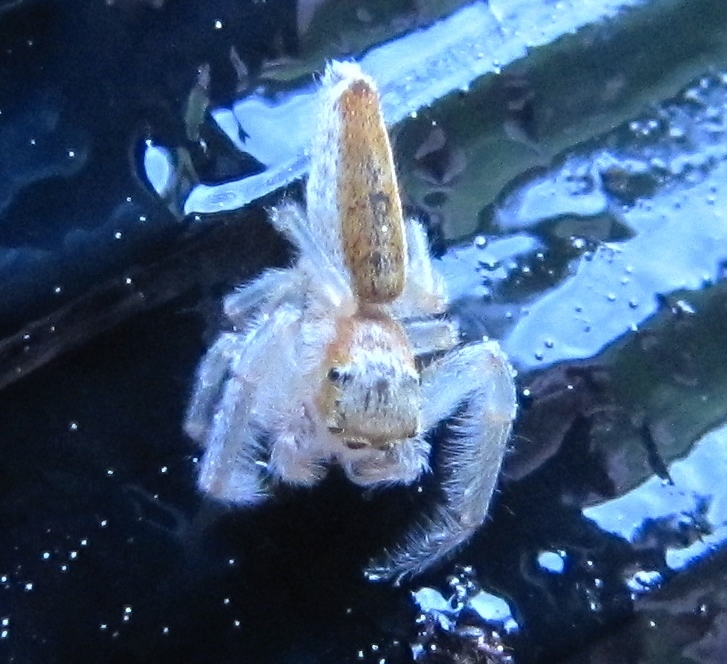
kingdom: Animalia
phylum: Arthropoda
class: Arachnida
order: Araneae
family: Salticidae
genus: Hentzia
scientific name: Hentzia mitrata
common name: White-jawed jumping spider
